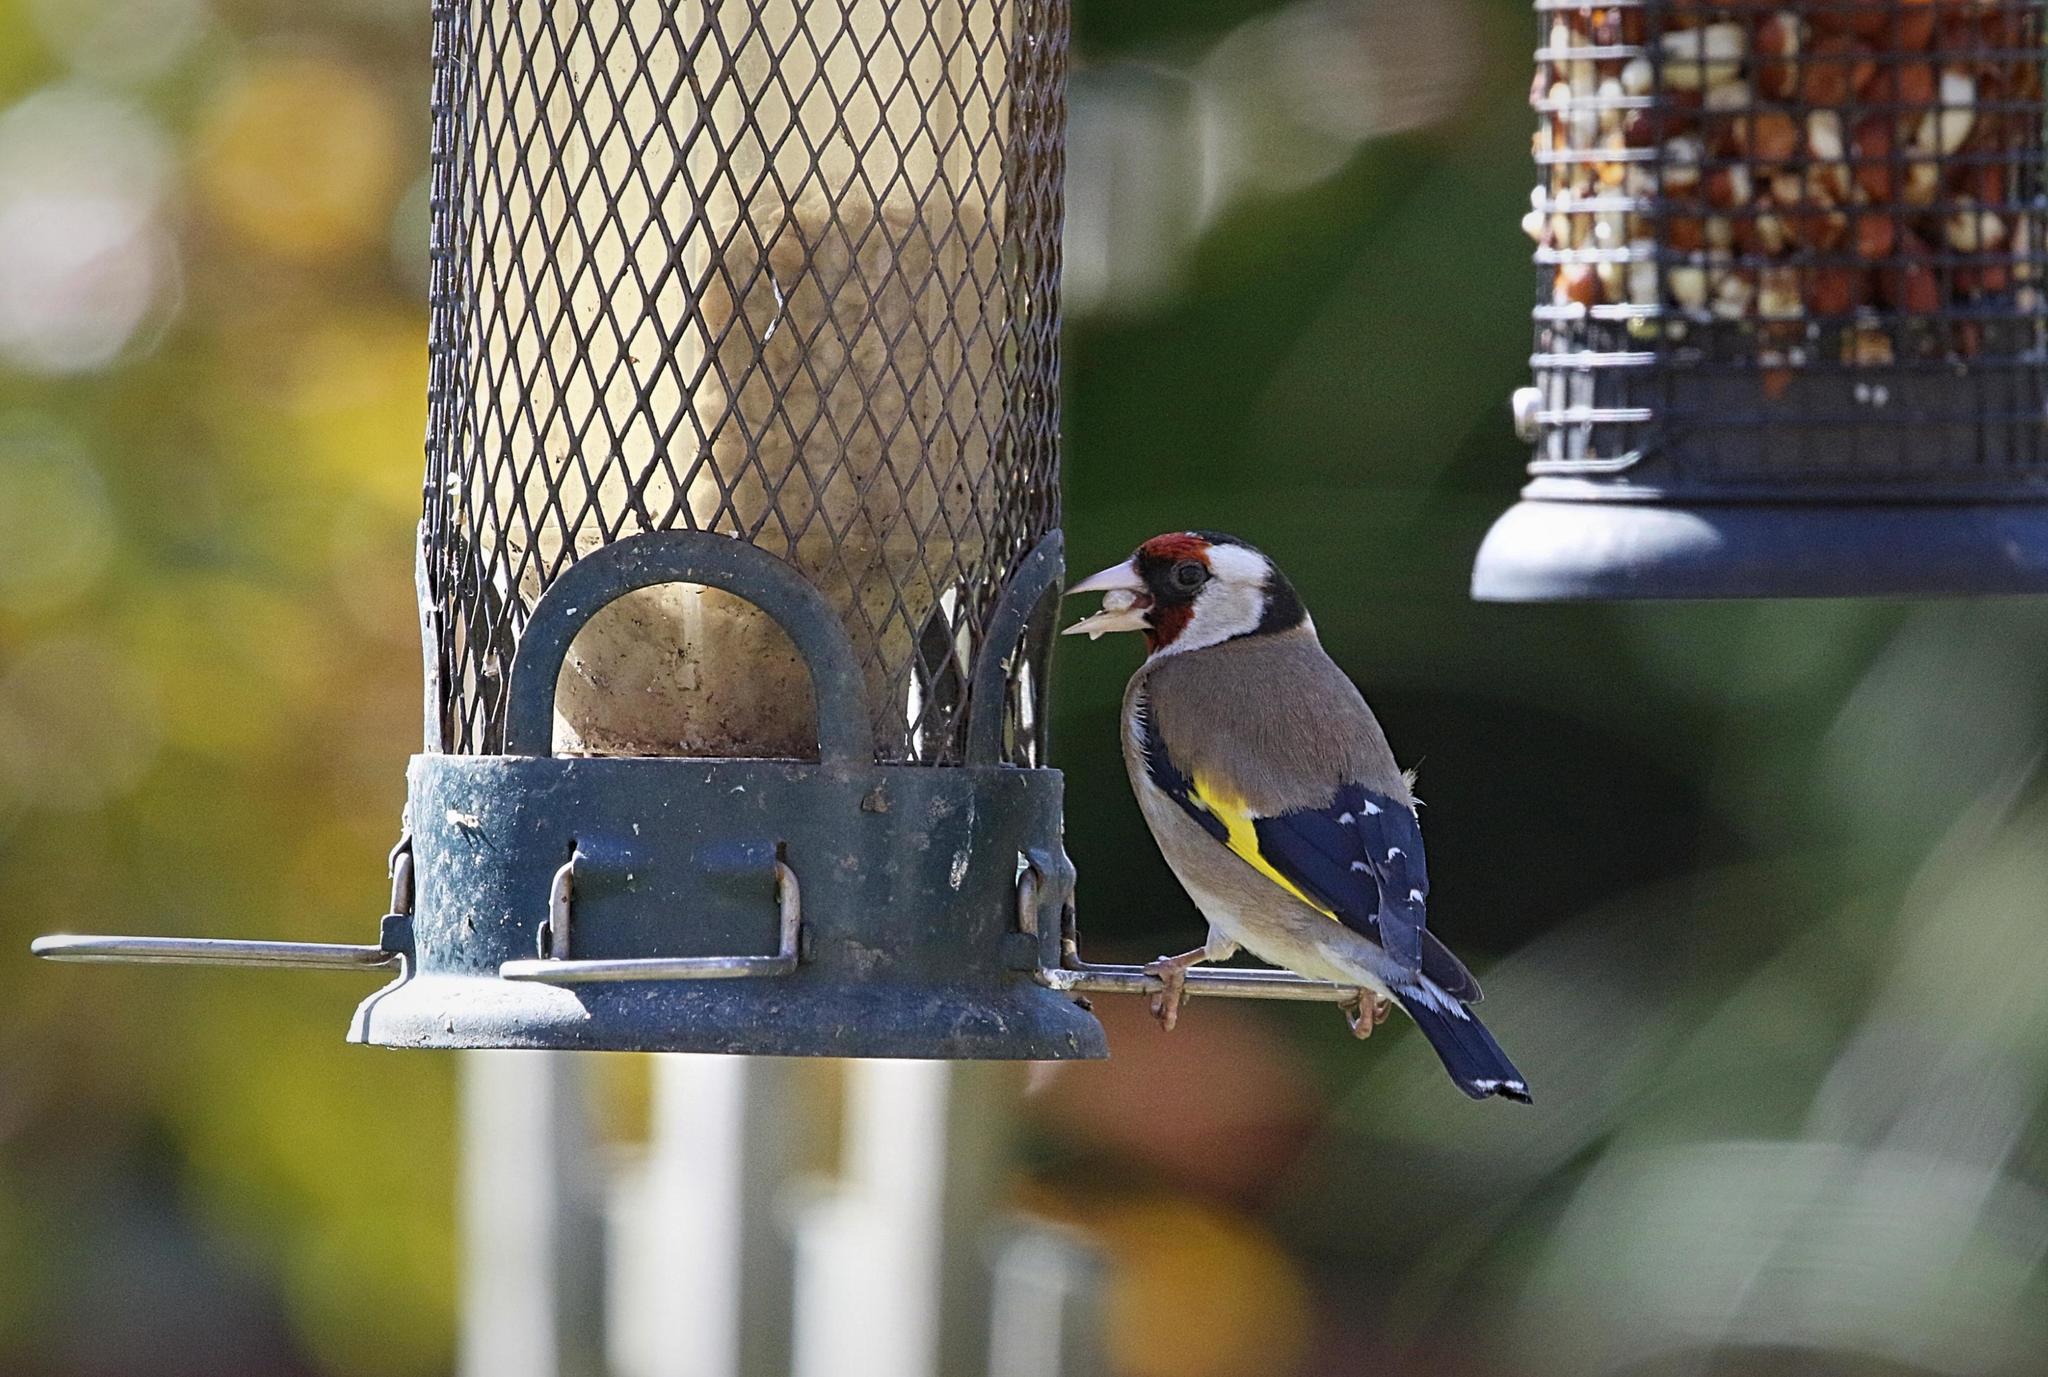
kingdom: Animalia
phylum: Chordata
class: Aves
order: Passeriformes
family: Fringillidae
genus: Carduelis
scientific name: Carduelis carduelis
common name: European goldfinch
